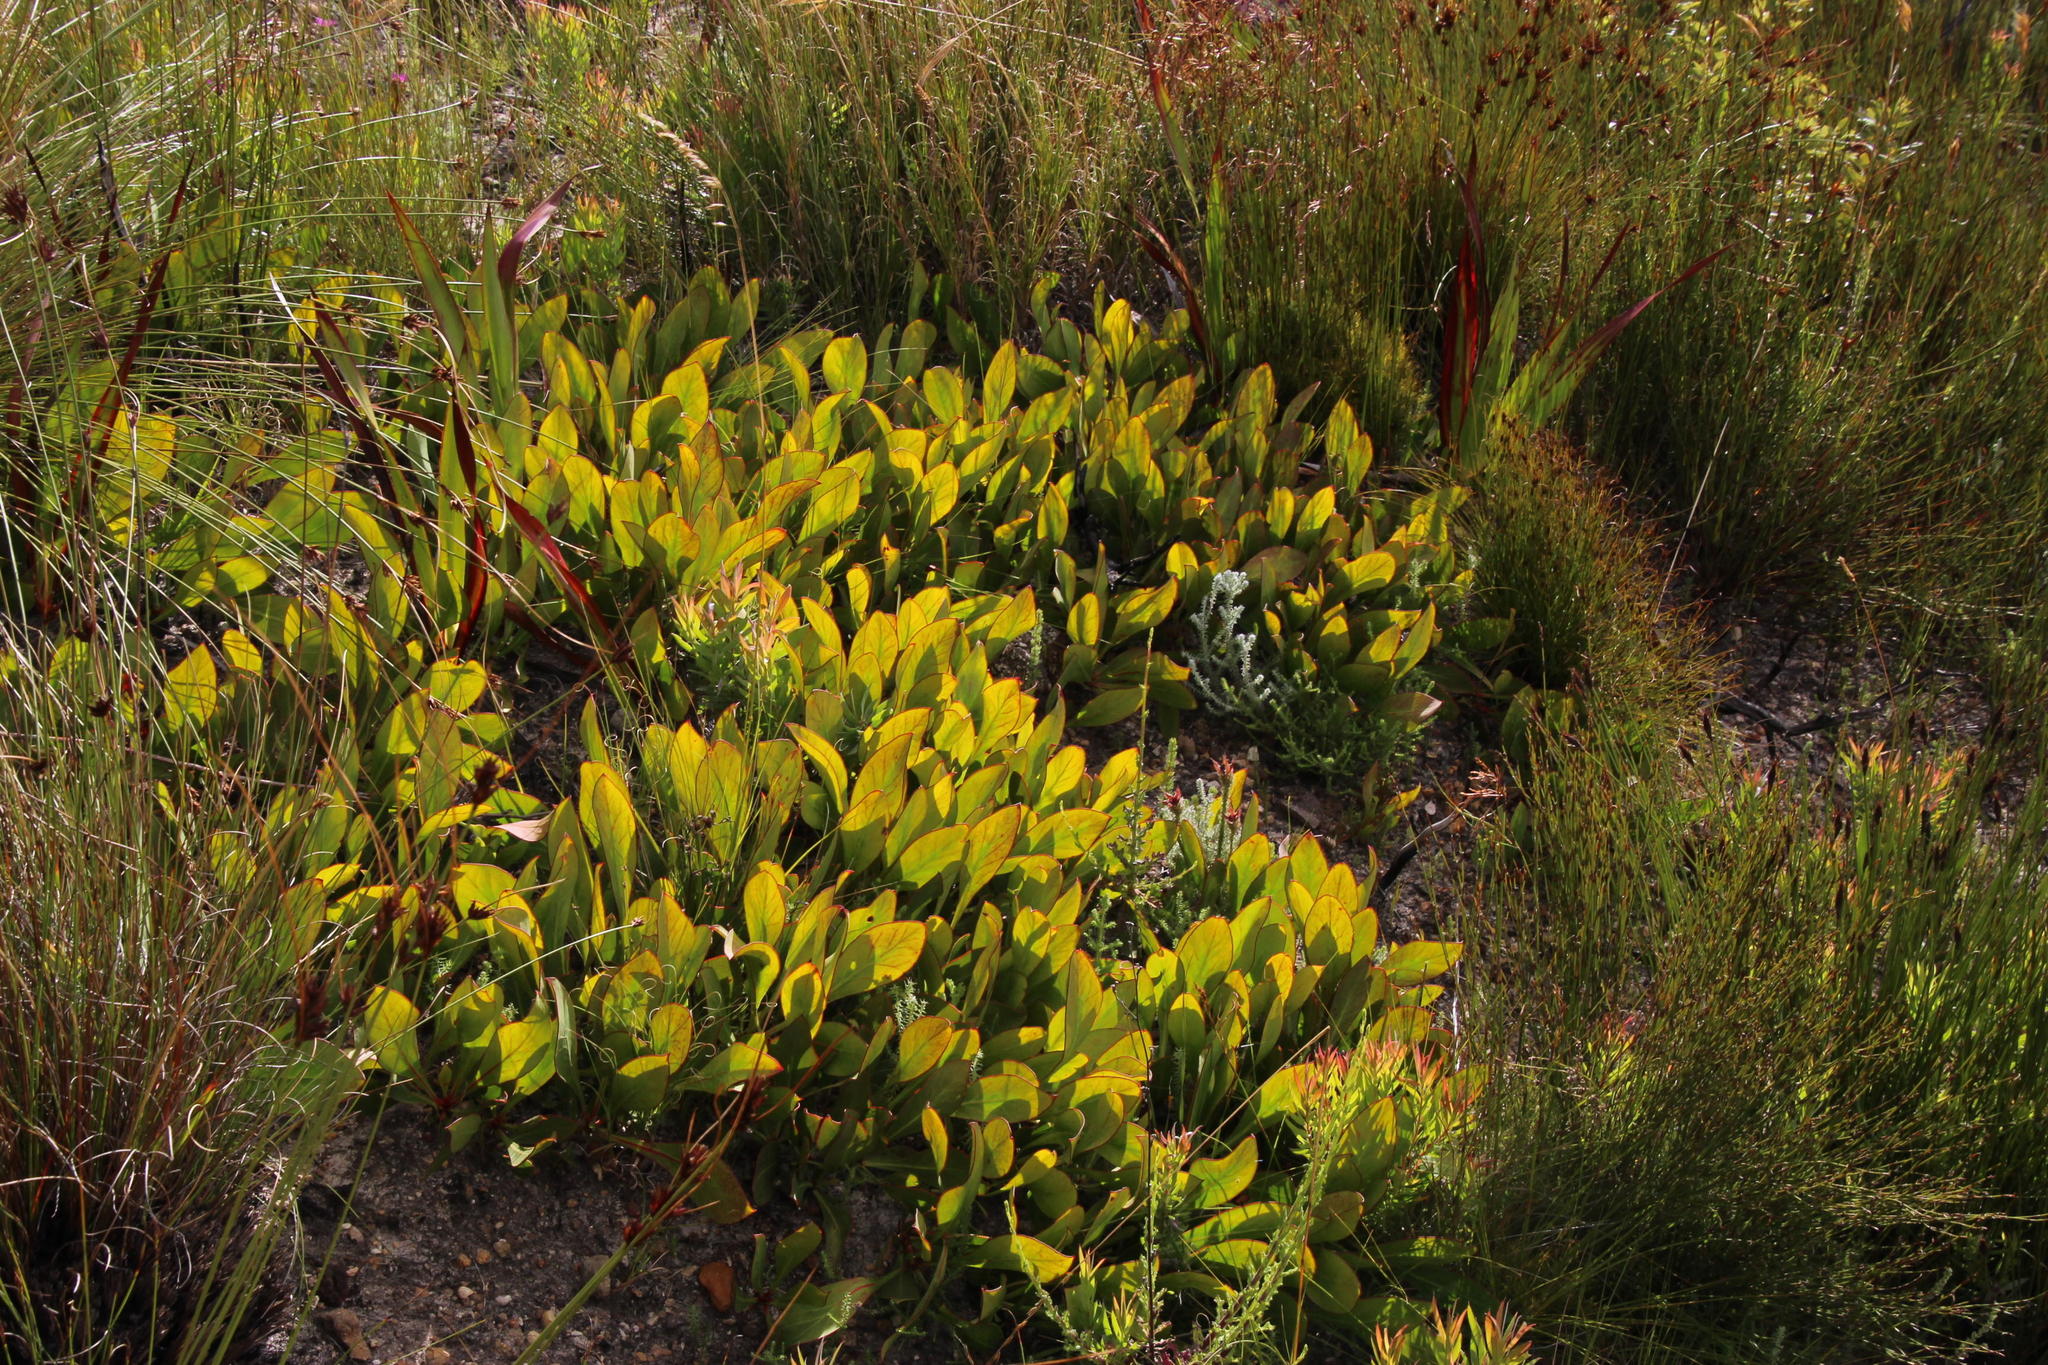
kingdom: Plantae
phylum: Tracheophyta
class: Magnoliopsida
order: Proteales
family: Proteaceae
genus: Protea
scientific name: Protea acaulos
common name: Common ground sugarbush
